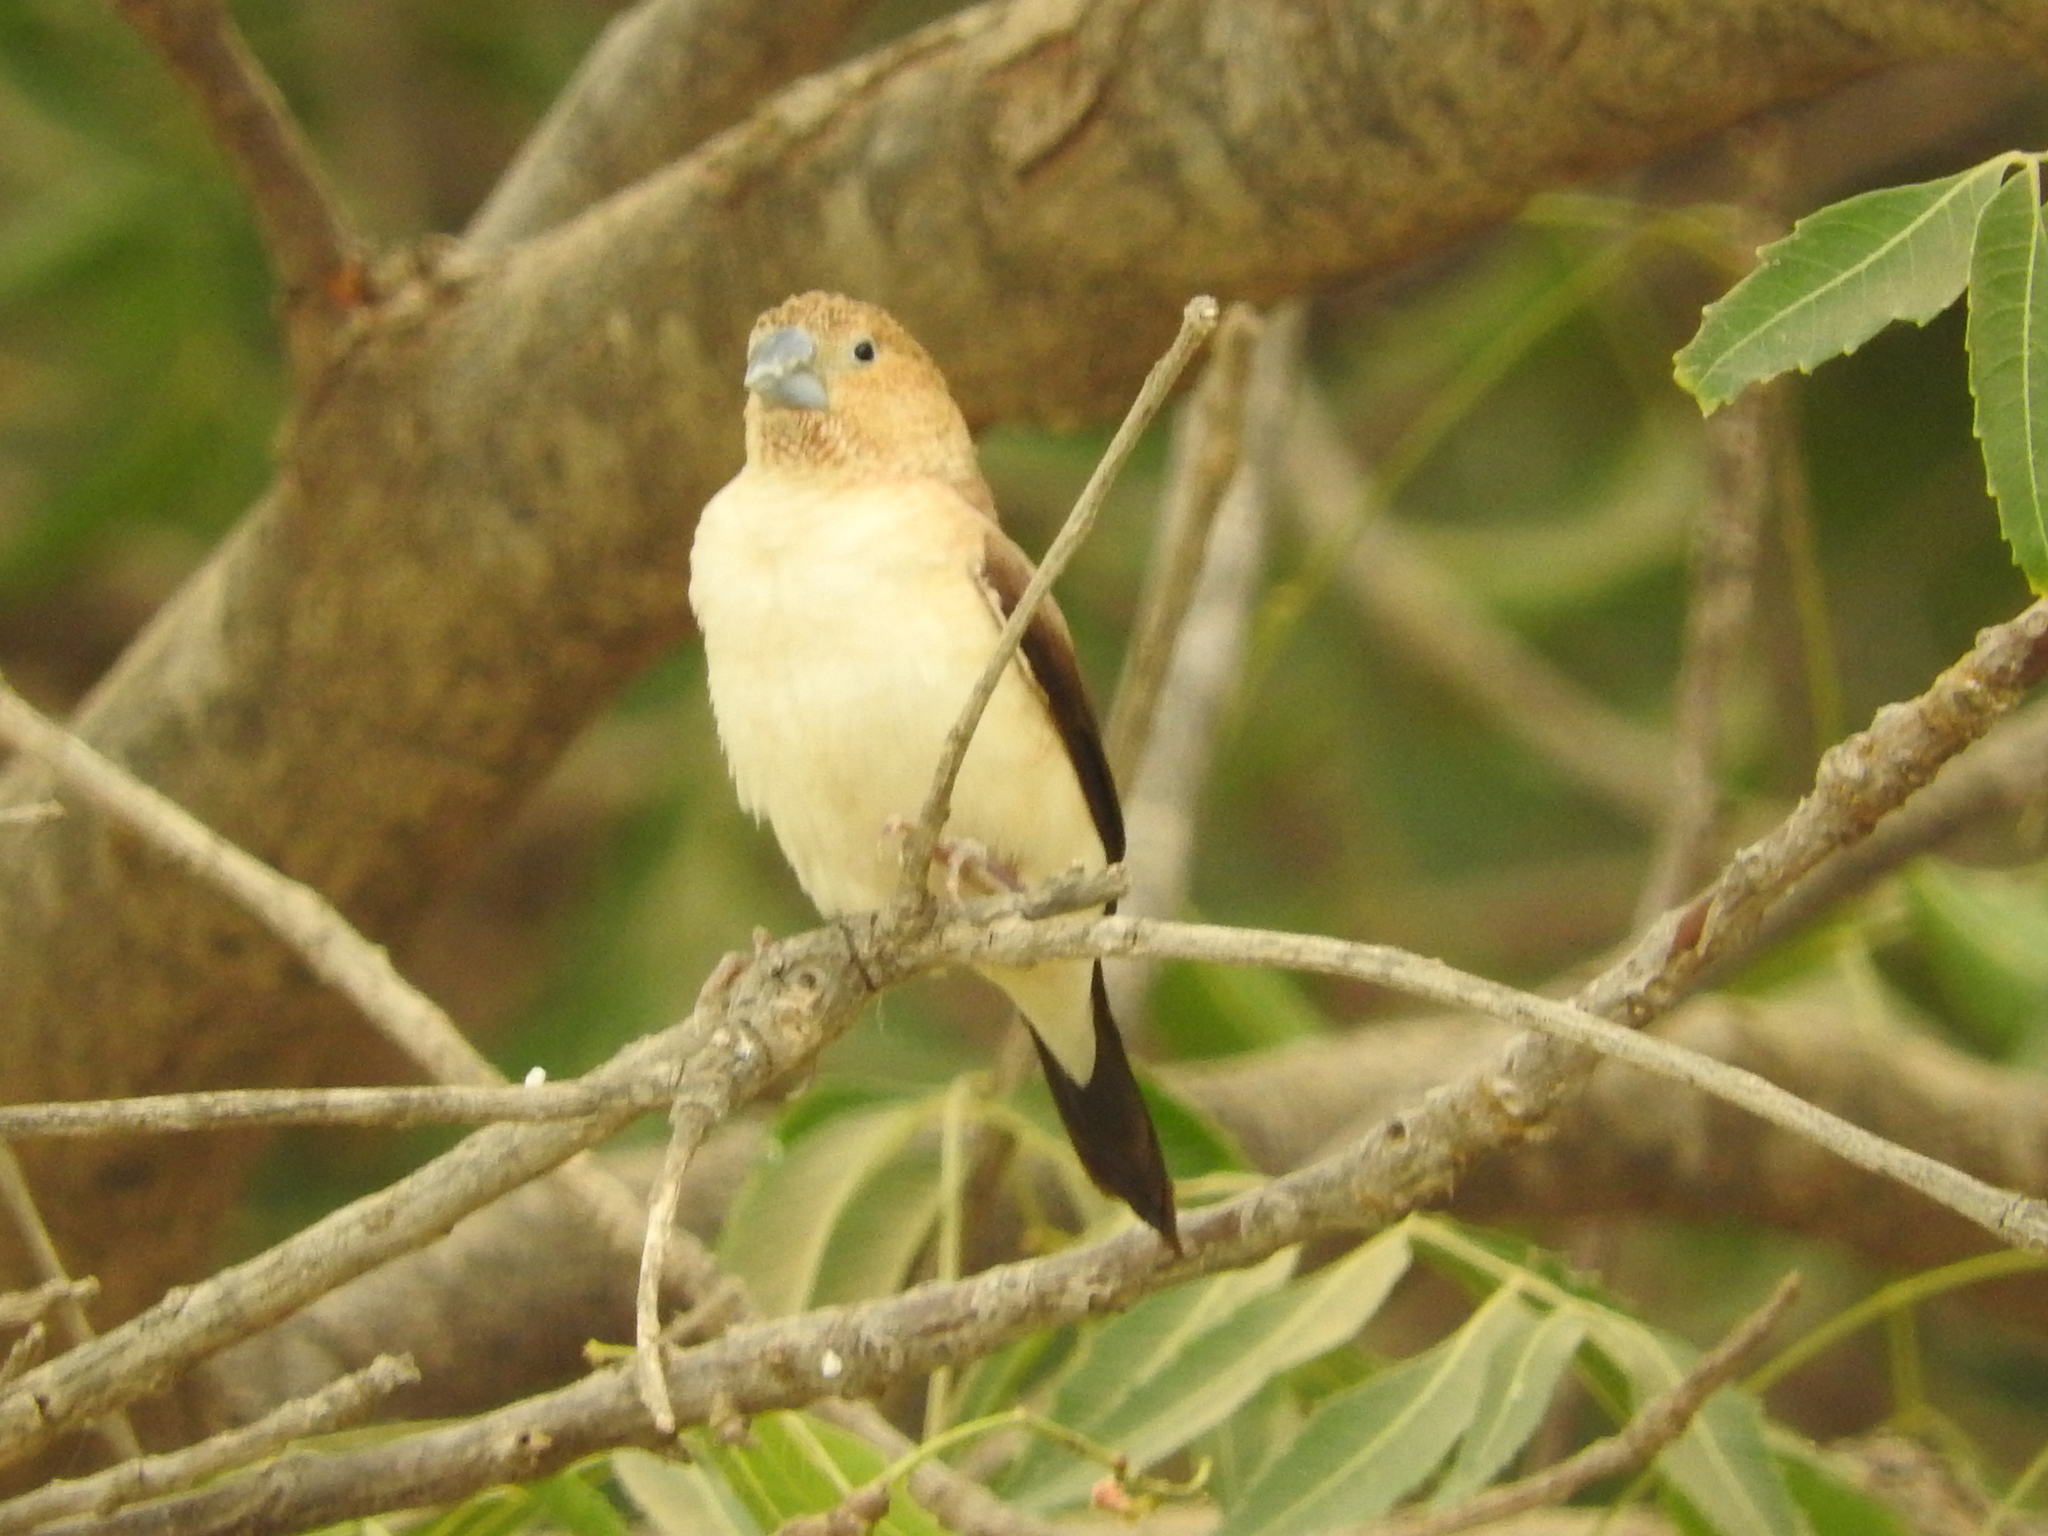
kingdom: Animalia
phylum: Chordata
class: Aves
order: Passeriformes
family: Estrildidae
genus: Euodice
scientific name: Euodice cantans
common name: African silverbill
